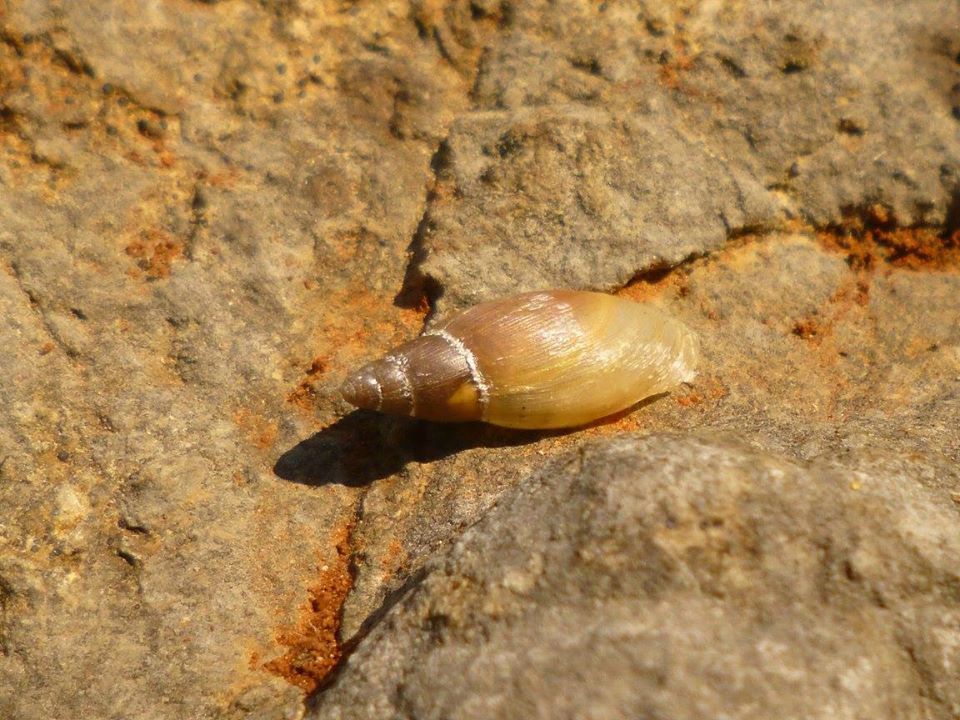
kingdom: Animalia
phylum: Mollusca
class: Gastropoda
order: Stylommatophora
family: Spiraxidae
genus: Poiretia
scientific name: Poiretia cornea
